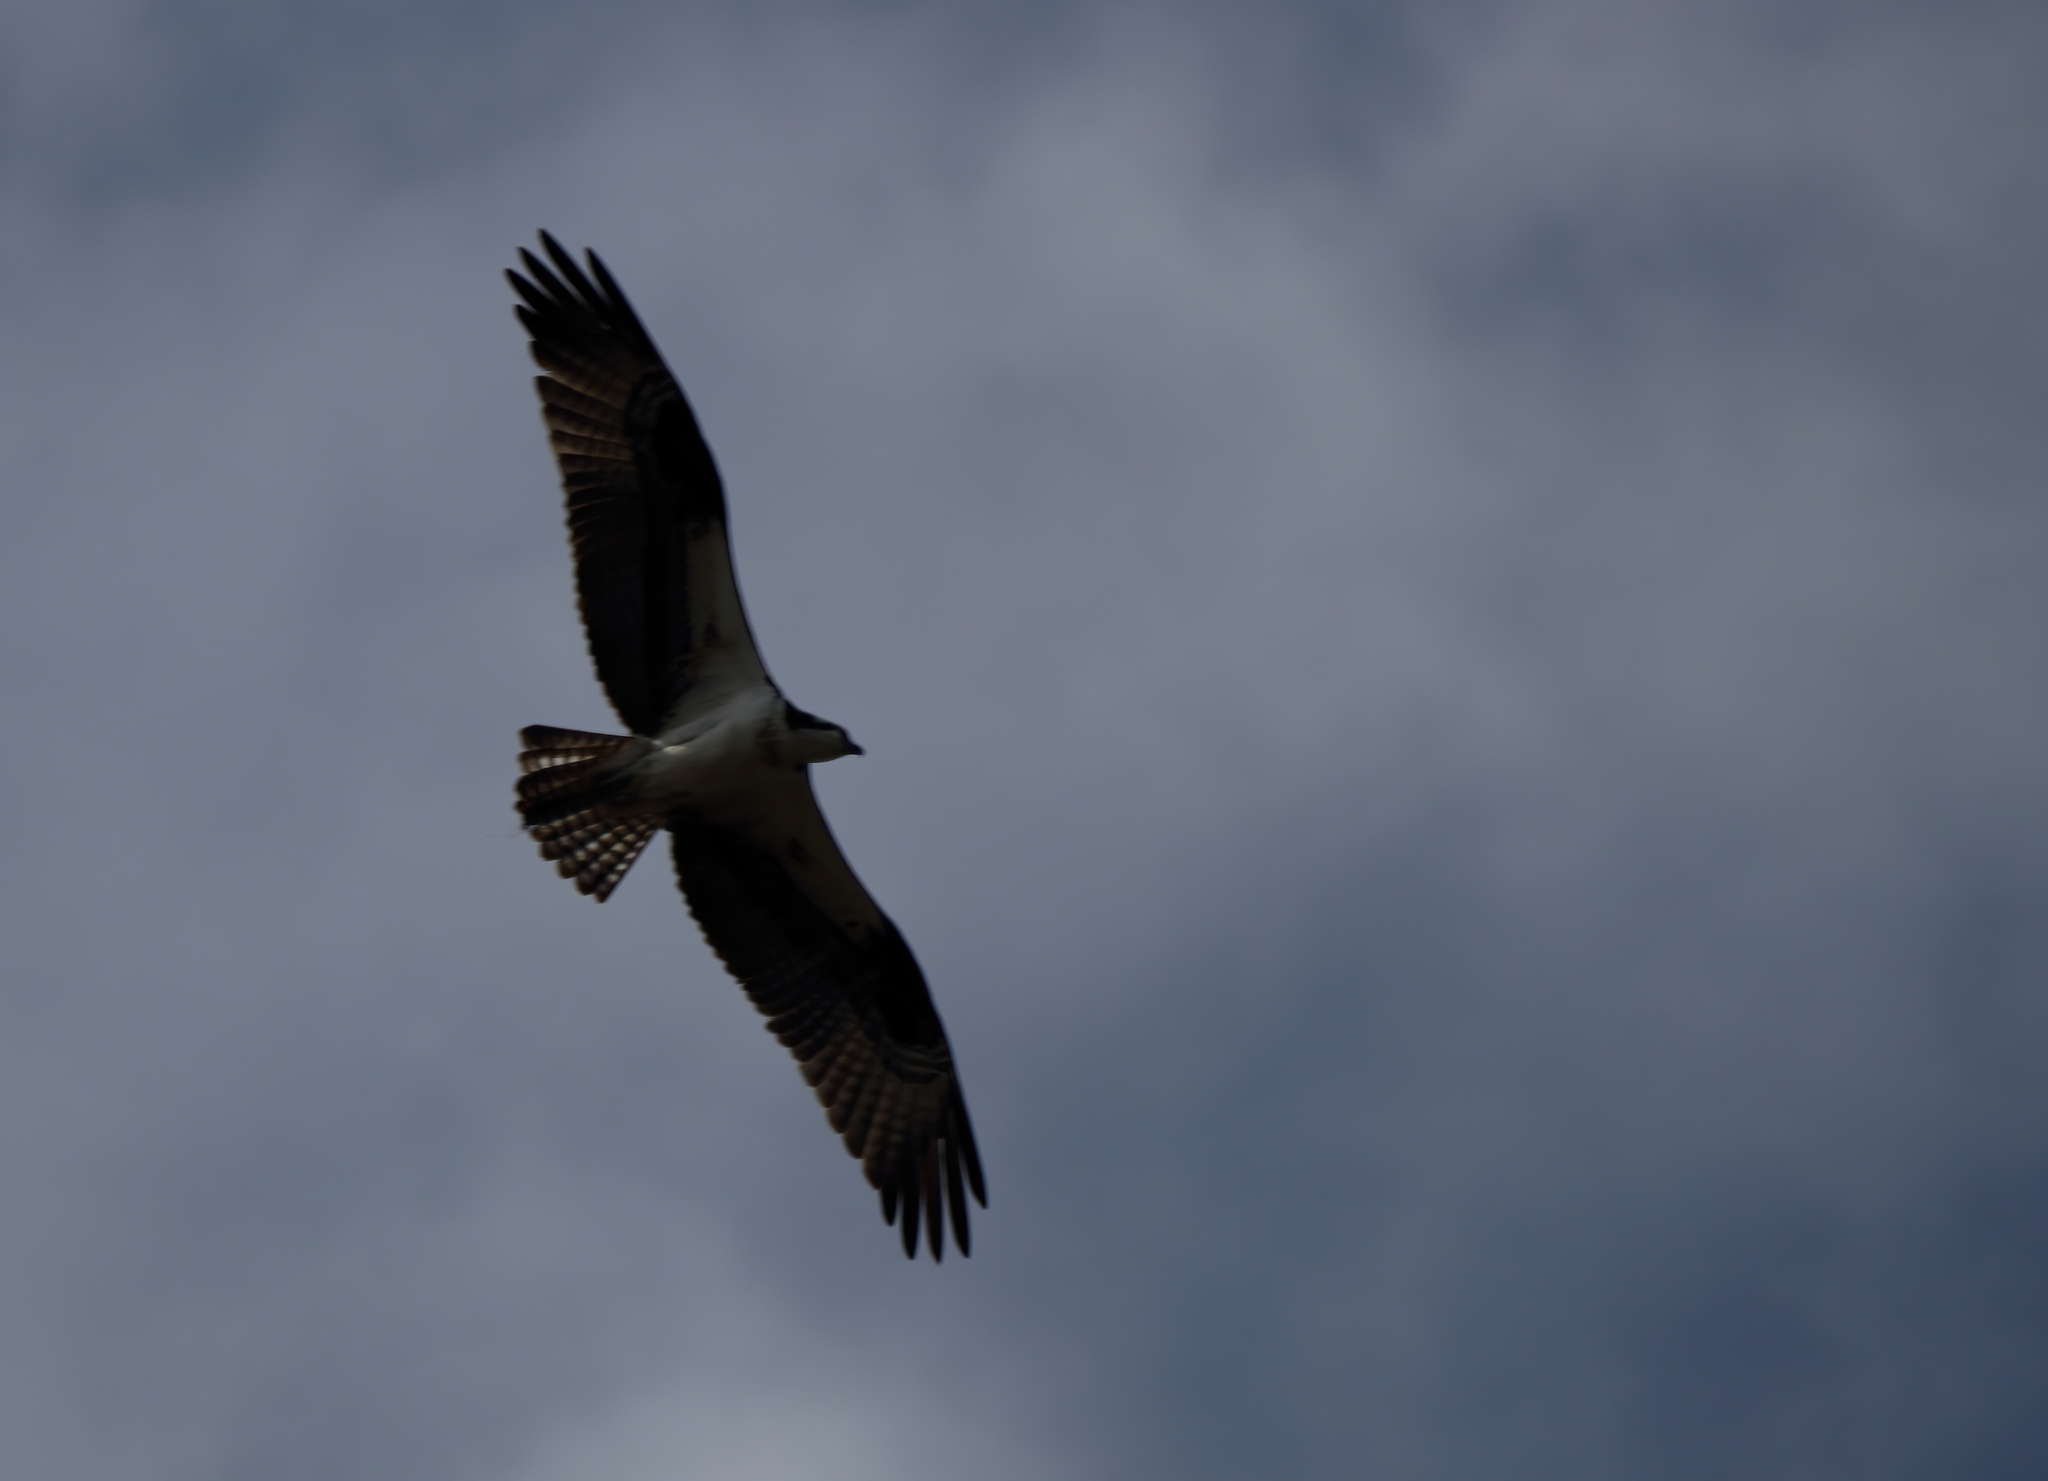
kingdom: Animalia
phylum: Chordata
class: Aves
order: Accipitriformes
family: Pandionidae
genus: Pandion
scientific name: Pandion haliaetus
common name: Osprey
